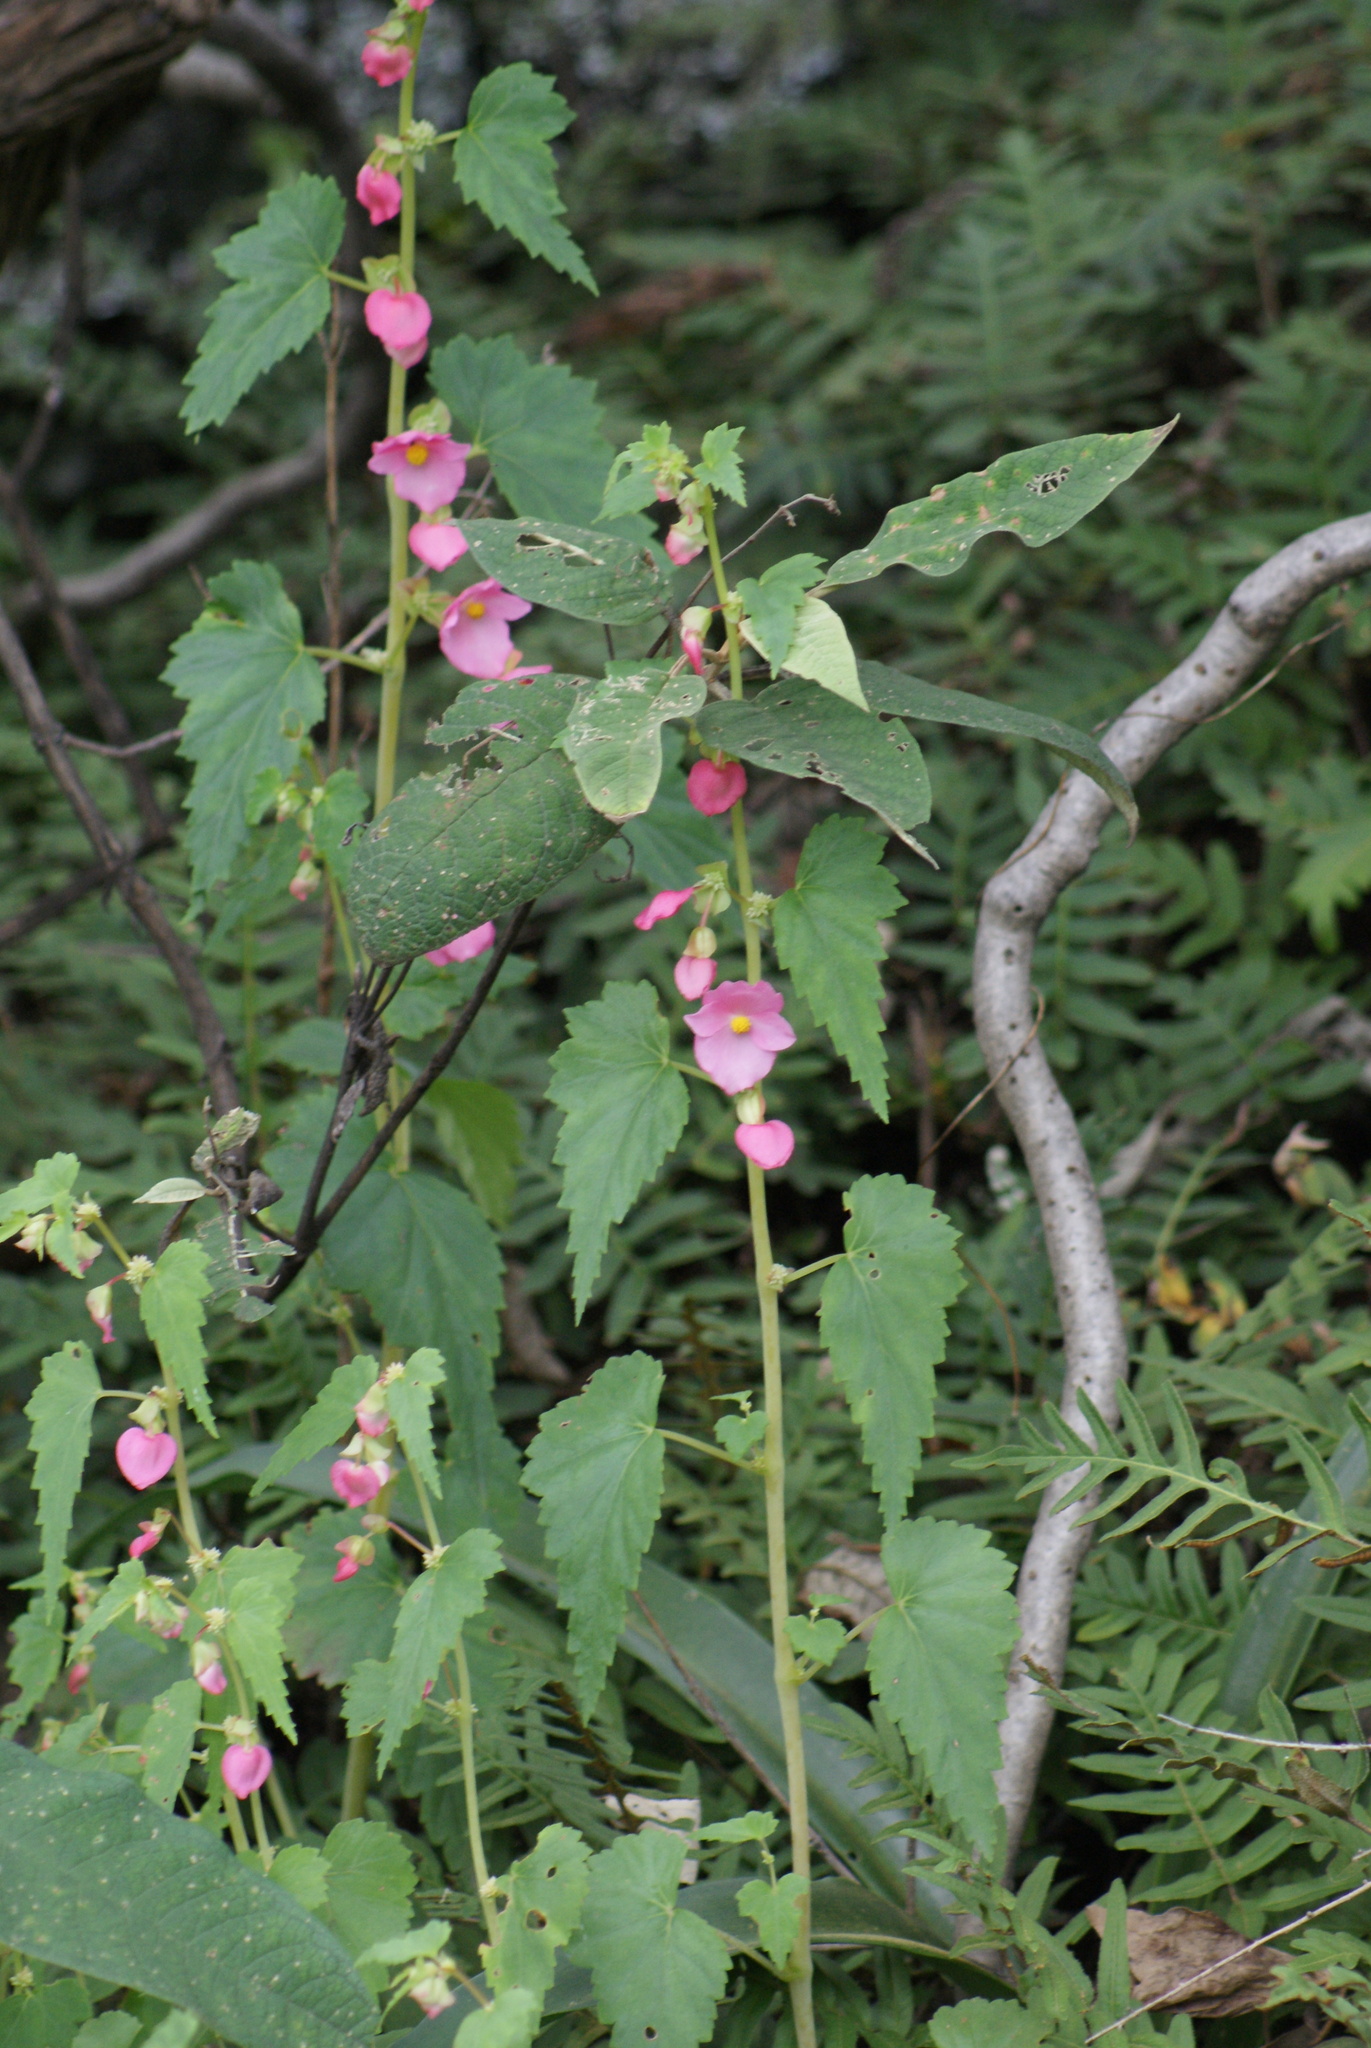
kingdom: Plantae
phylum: Tracheophyta
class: Magnoliopsida
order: Cucurbitales
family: Begoniaceae
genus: Begonia
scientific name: Begonia gracilis
